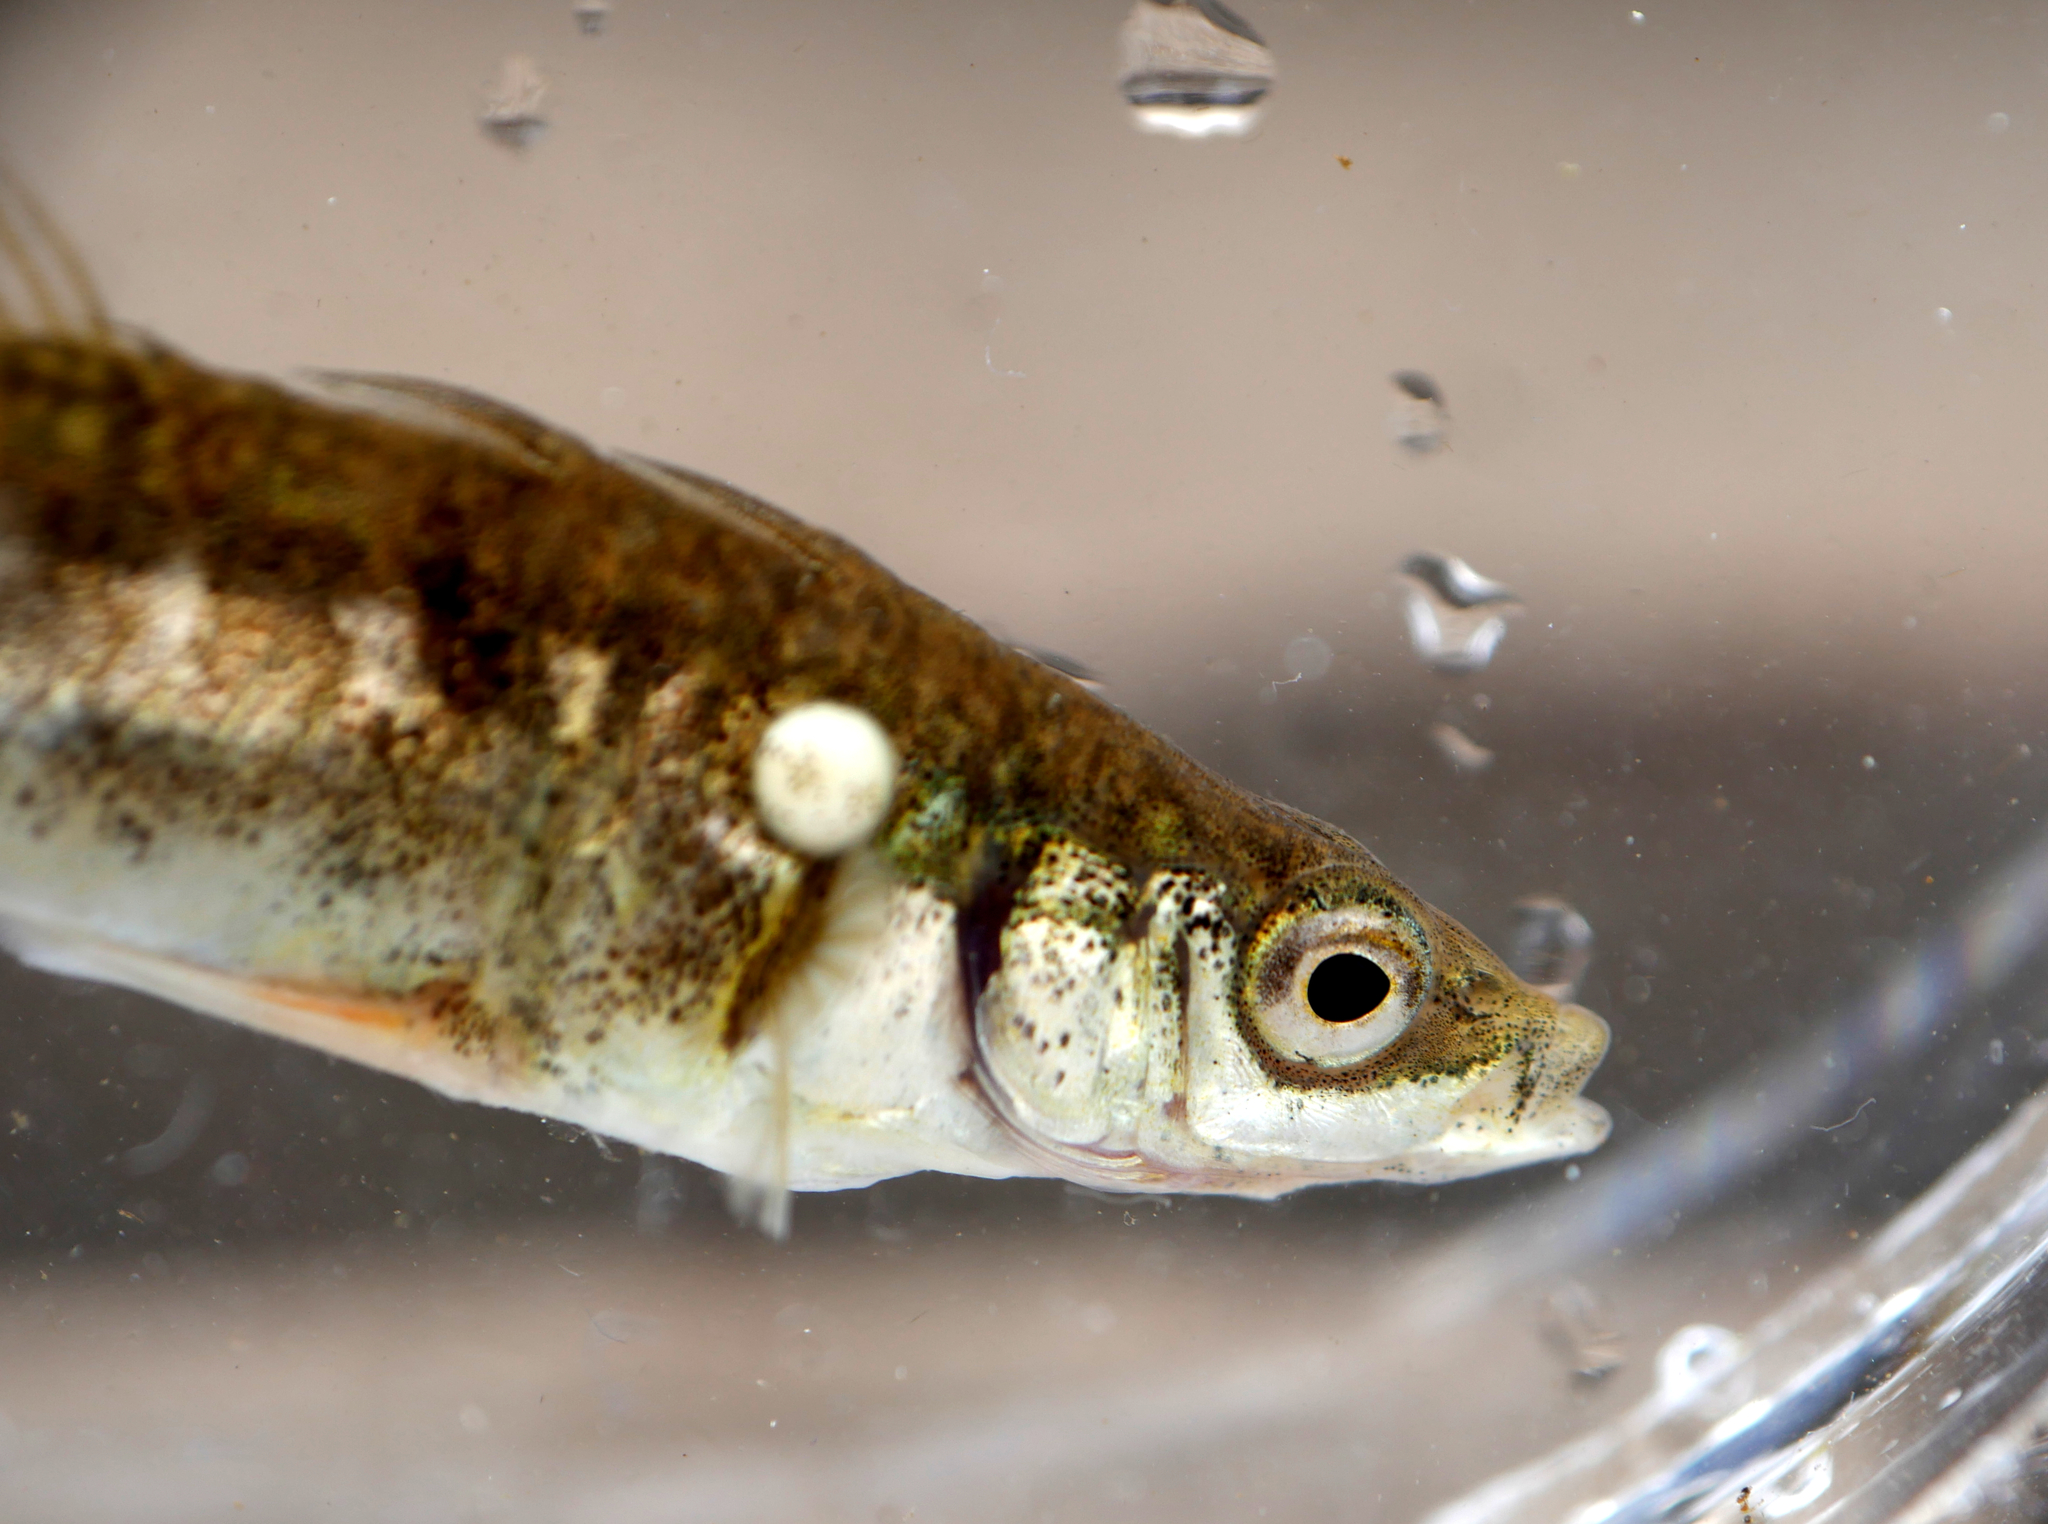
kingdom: Animalia
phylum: Chordata
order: Gasterosteiformes
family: Gasterosteidae
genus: Gasterosteus
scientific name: Gasterosteus aculeatus
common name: Three-spined stickleback
